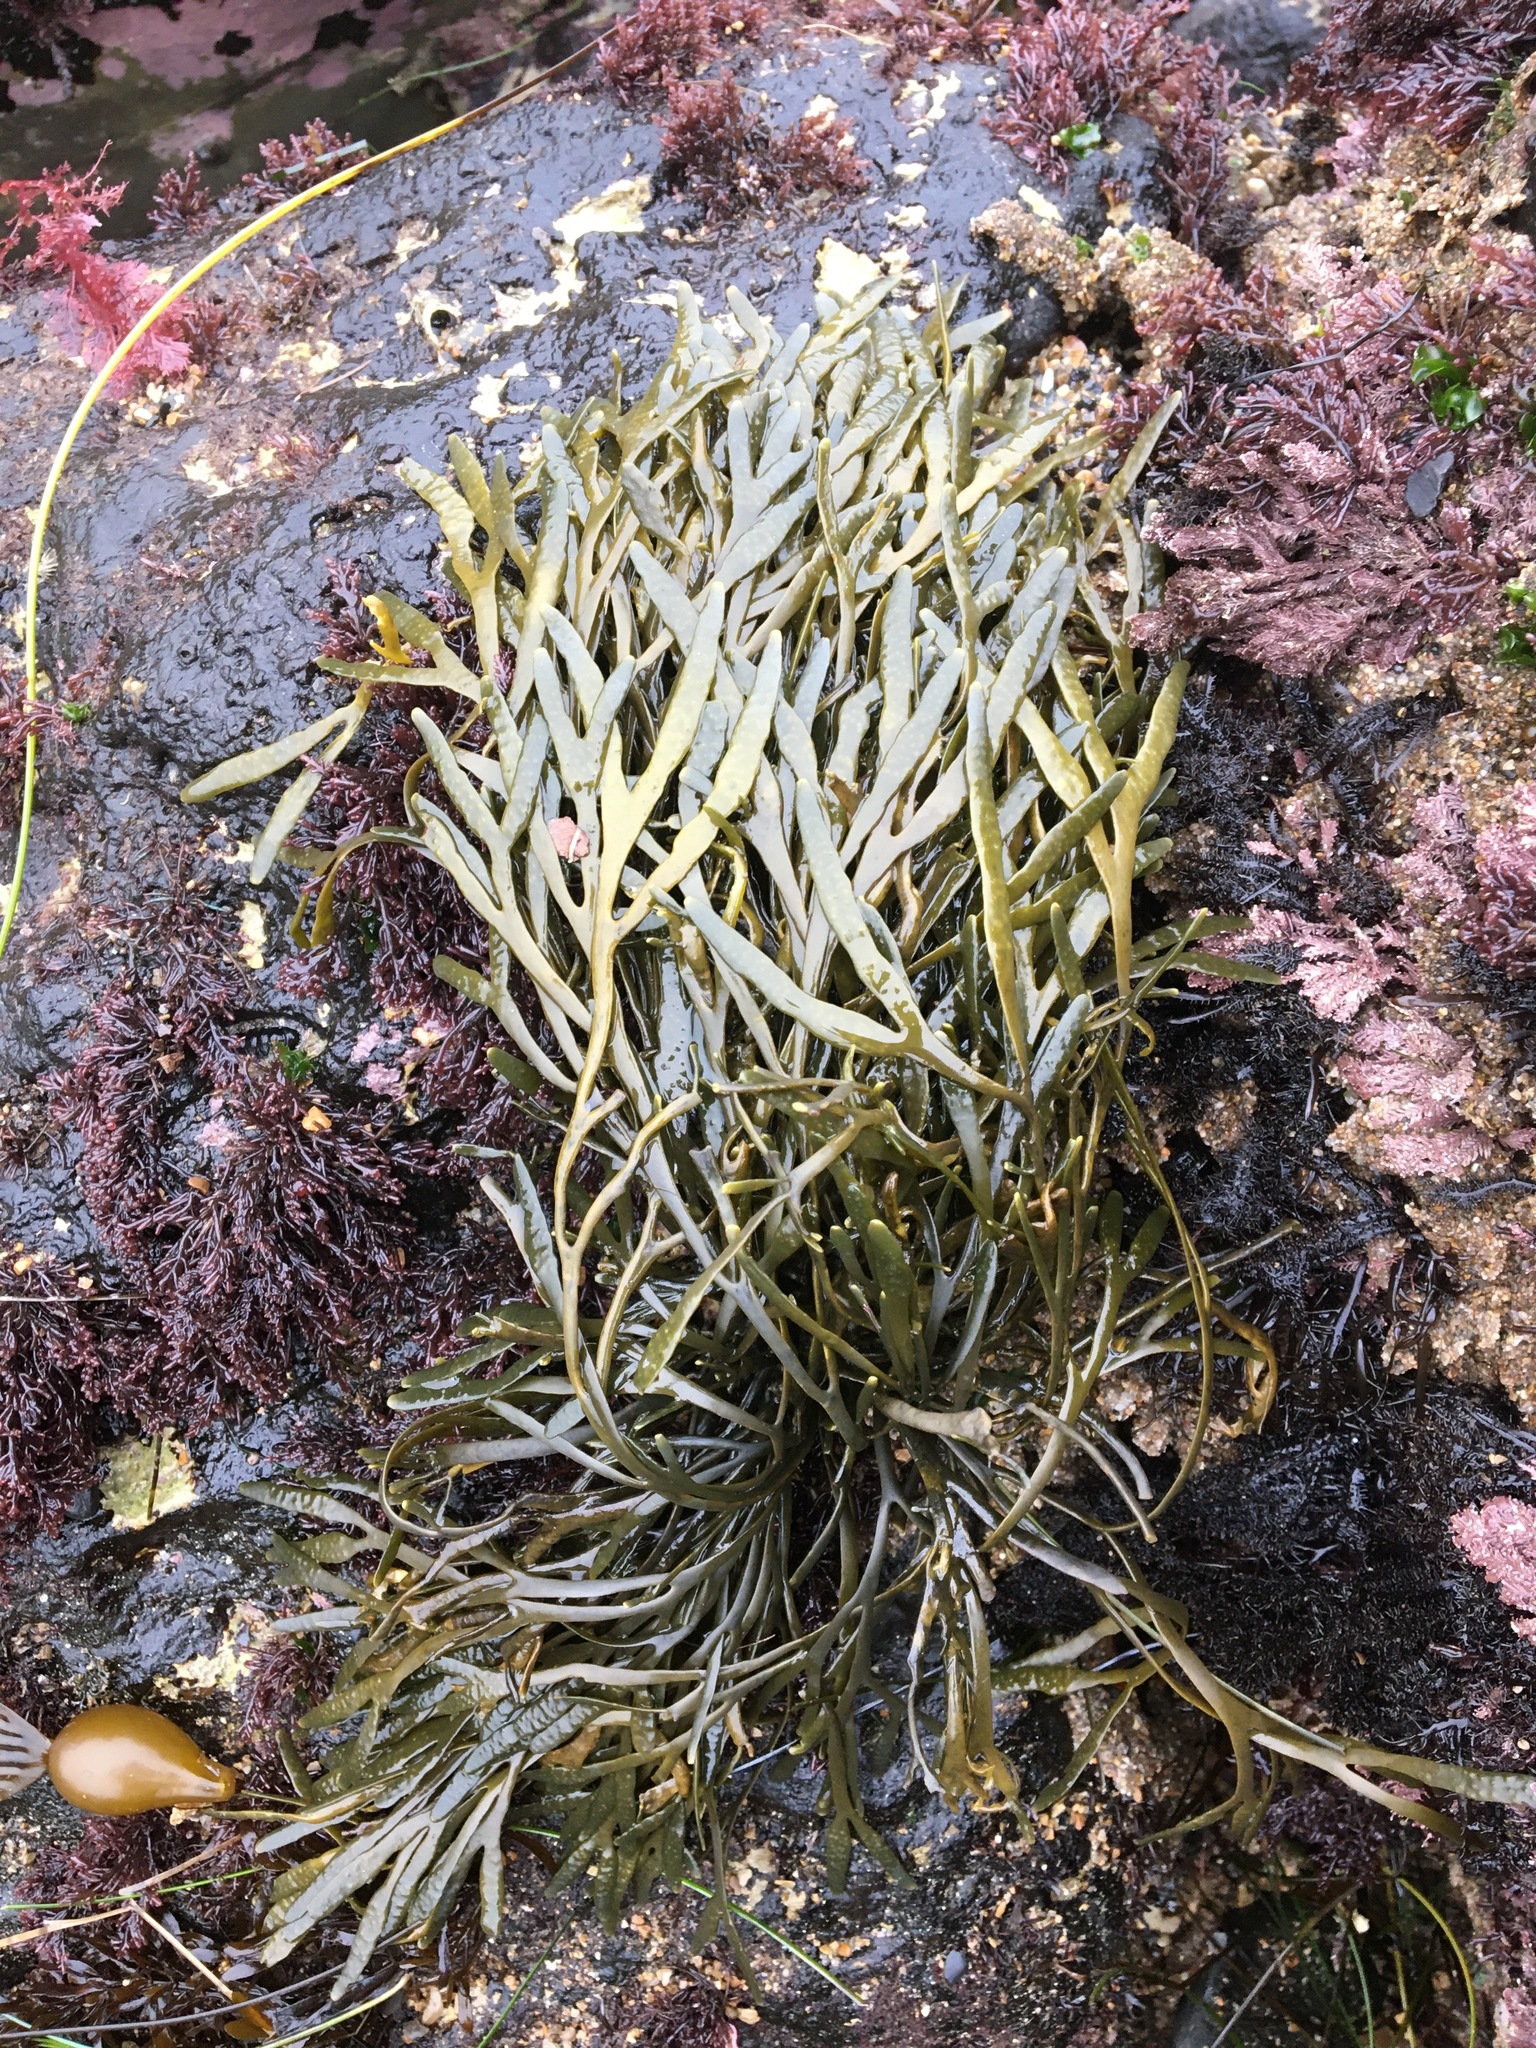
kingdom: Chromista
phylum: Ochrophyta
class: Phaeophyceae
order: Fucales
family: Fucaceae
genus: Silvetia
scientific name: Silvetia
